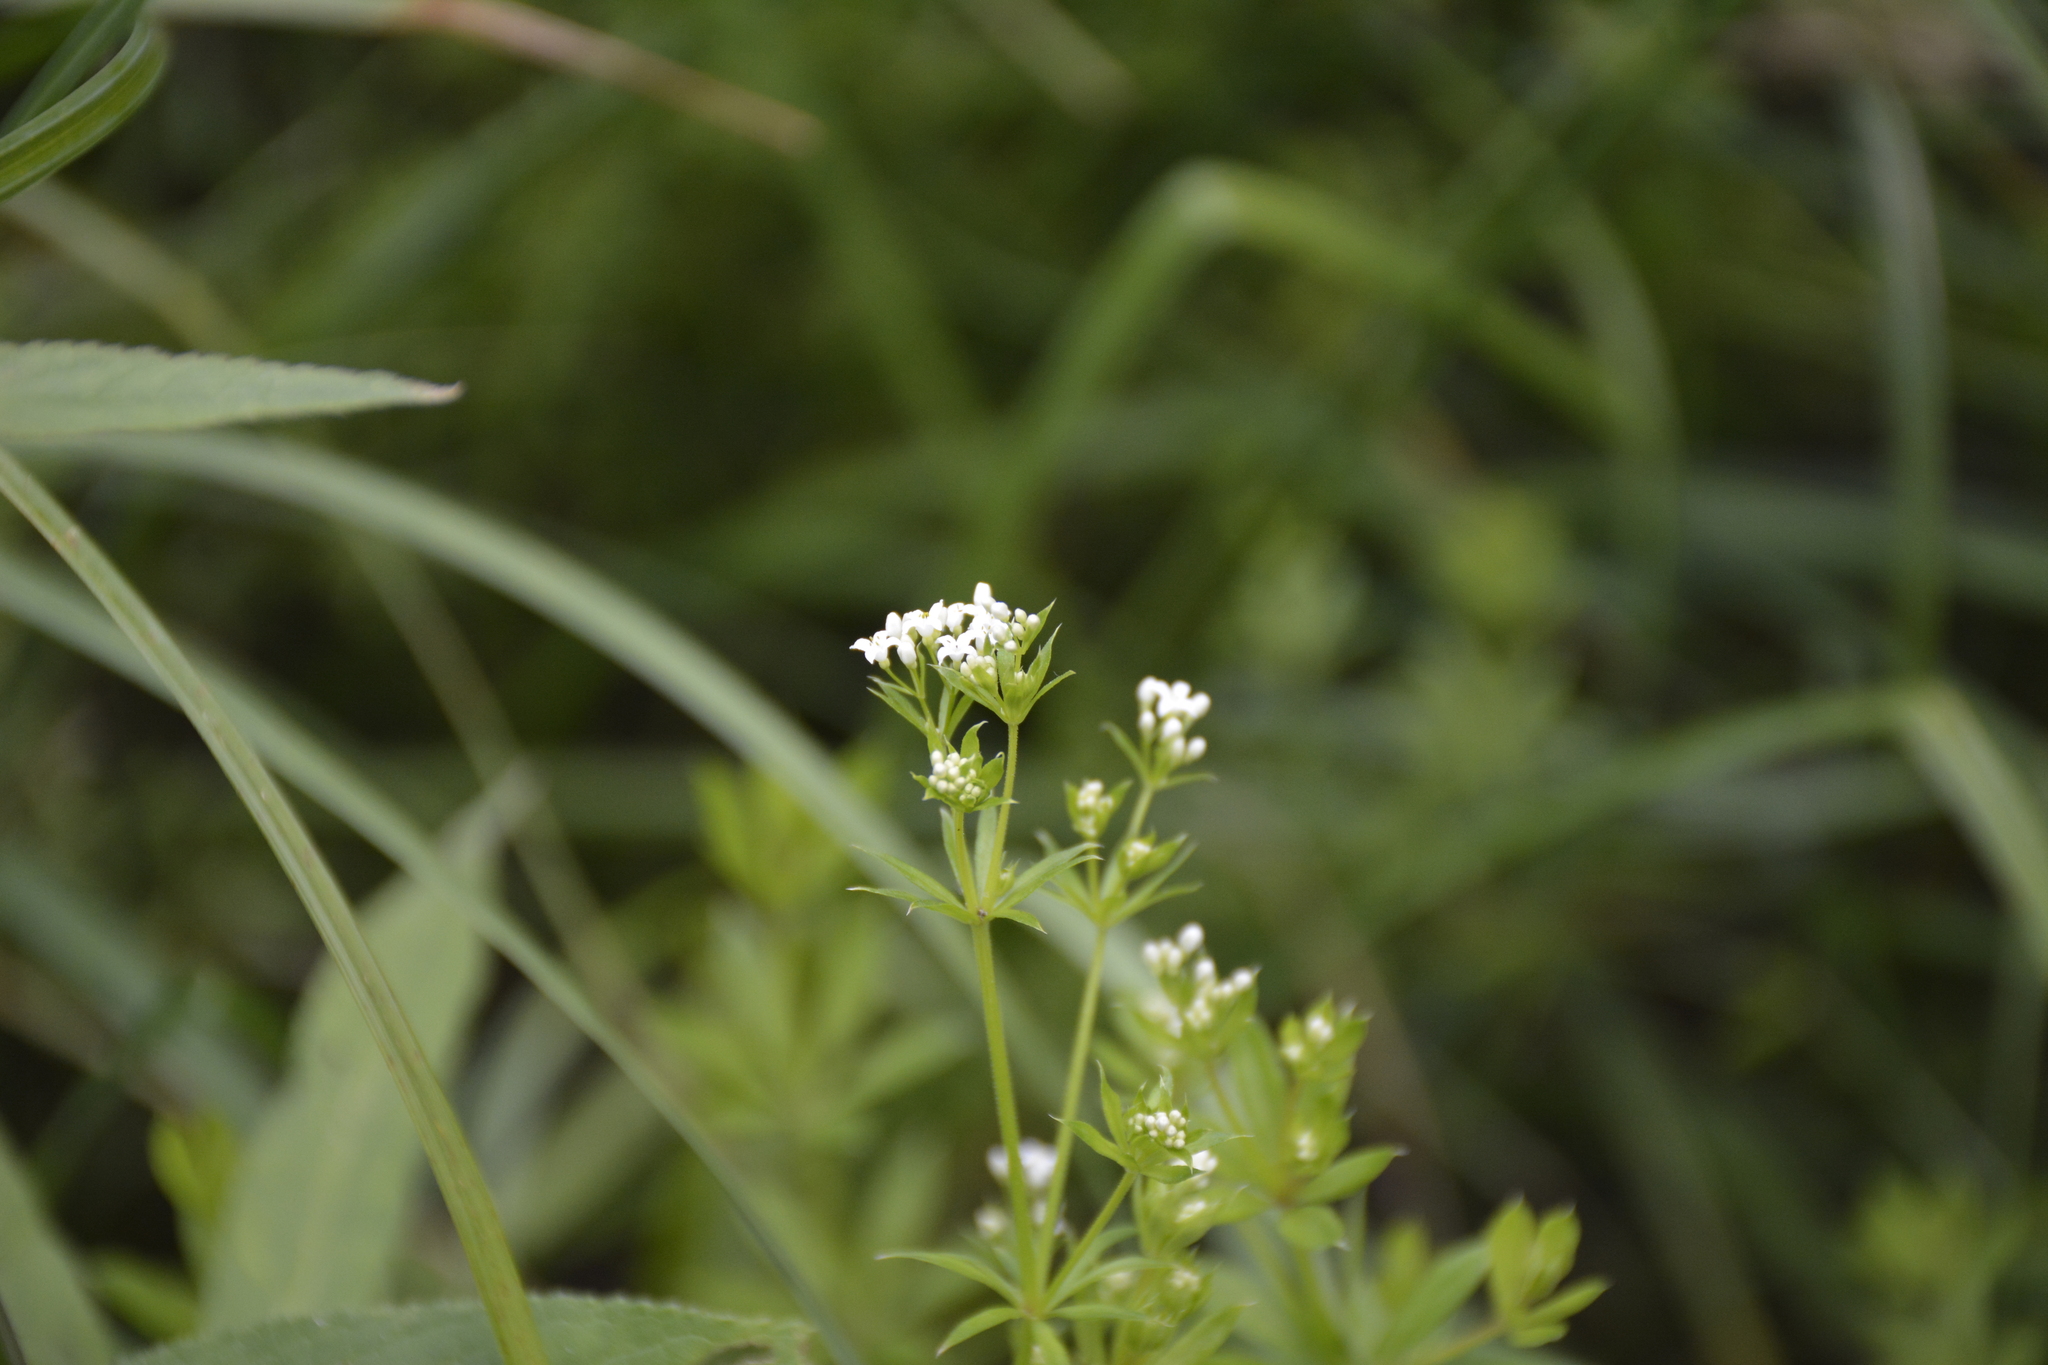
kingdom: Plantae
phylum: Tracheophyta
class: Magnoliopsida
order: Gentianales
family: Rubiaceae
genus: Galium
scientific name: Galium rivale
